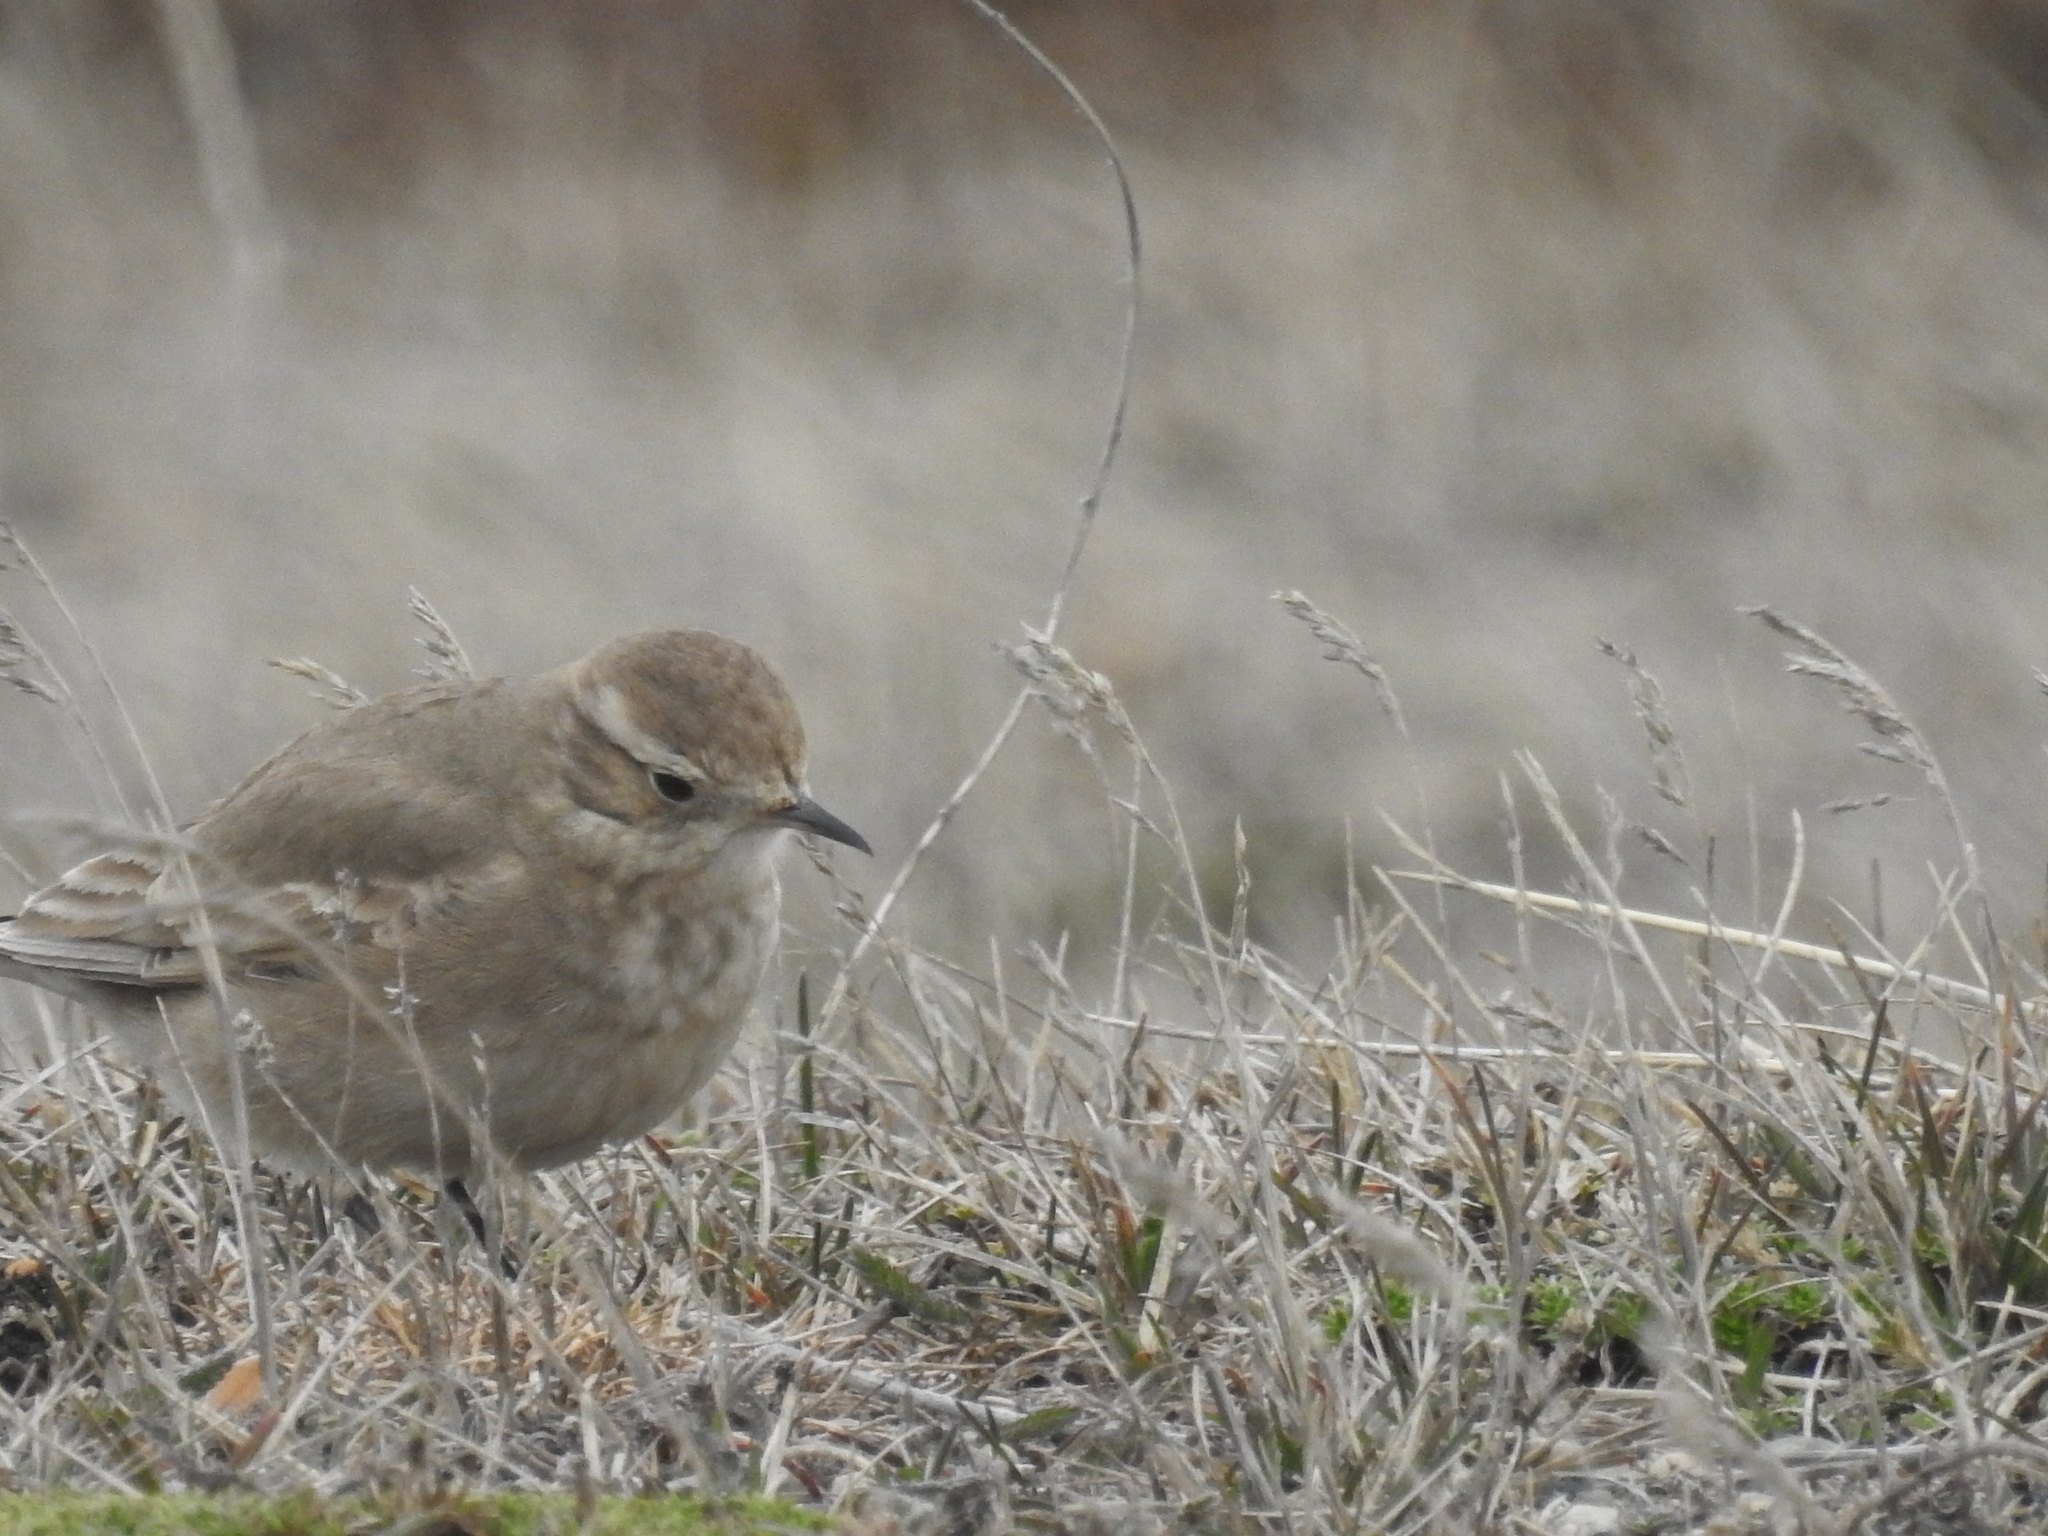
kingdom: Animalia
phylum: Chordata
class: Aves
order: Passeriformes
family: Furnariidae
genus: Geositta
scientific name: Geositta cunicularia
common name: Common miner
